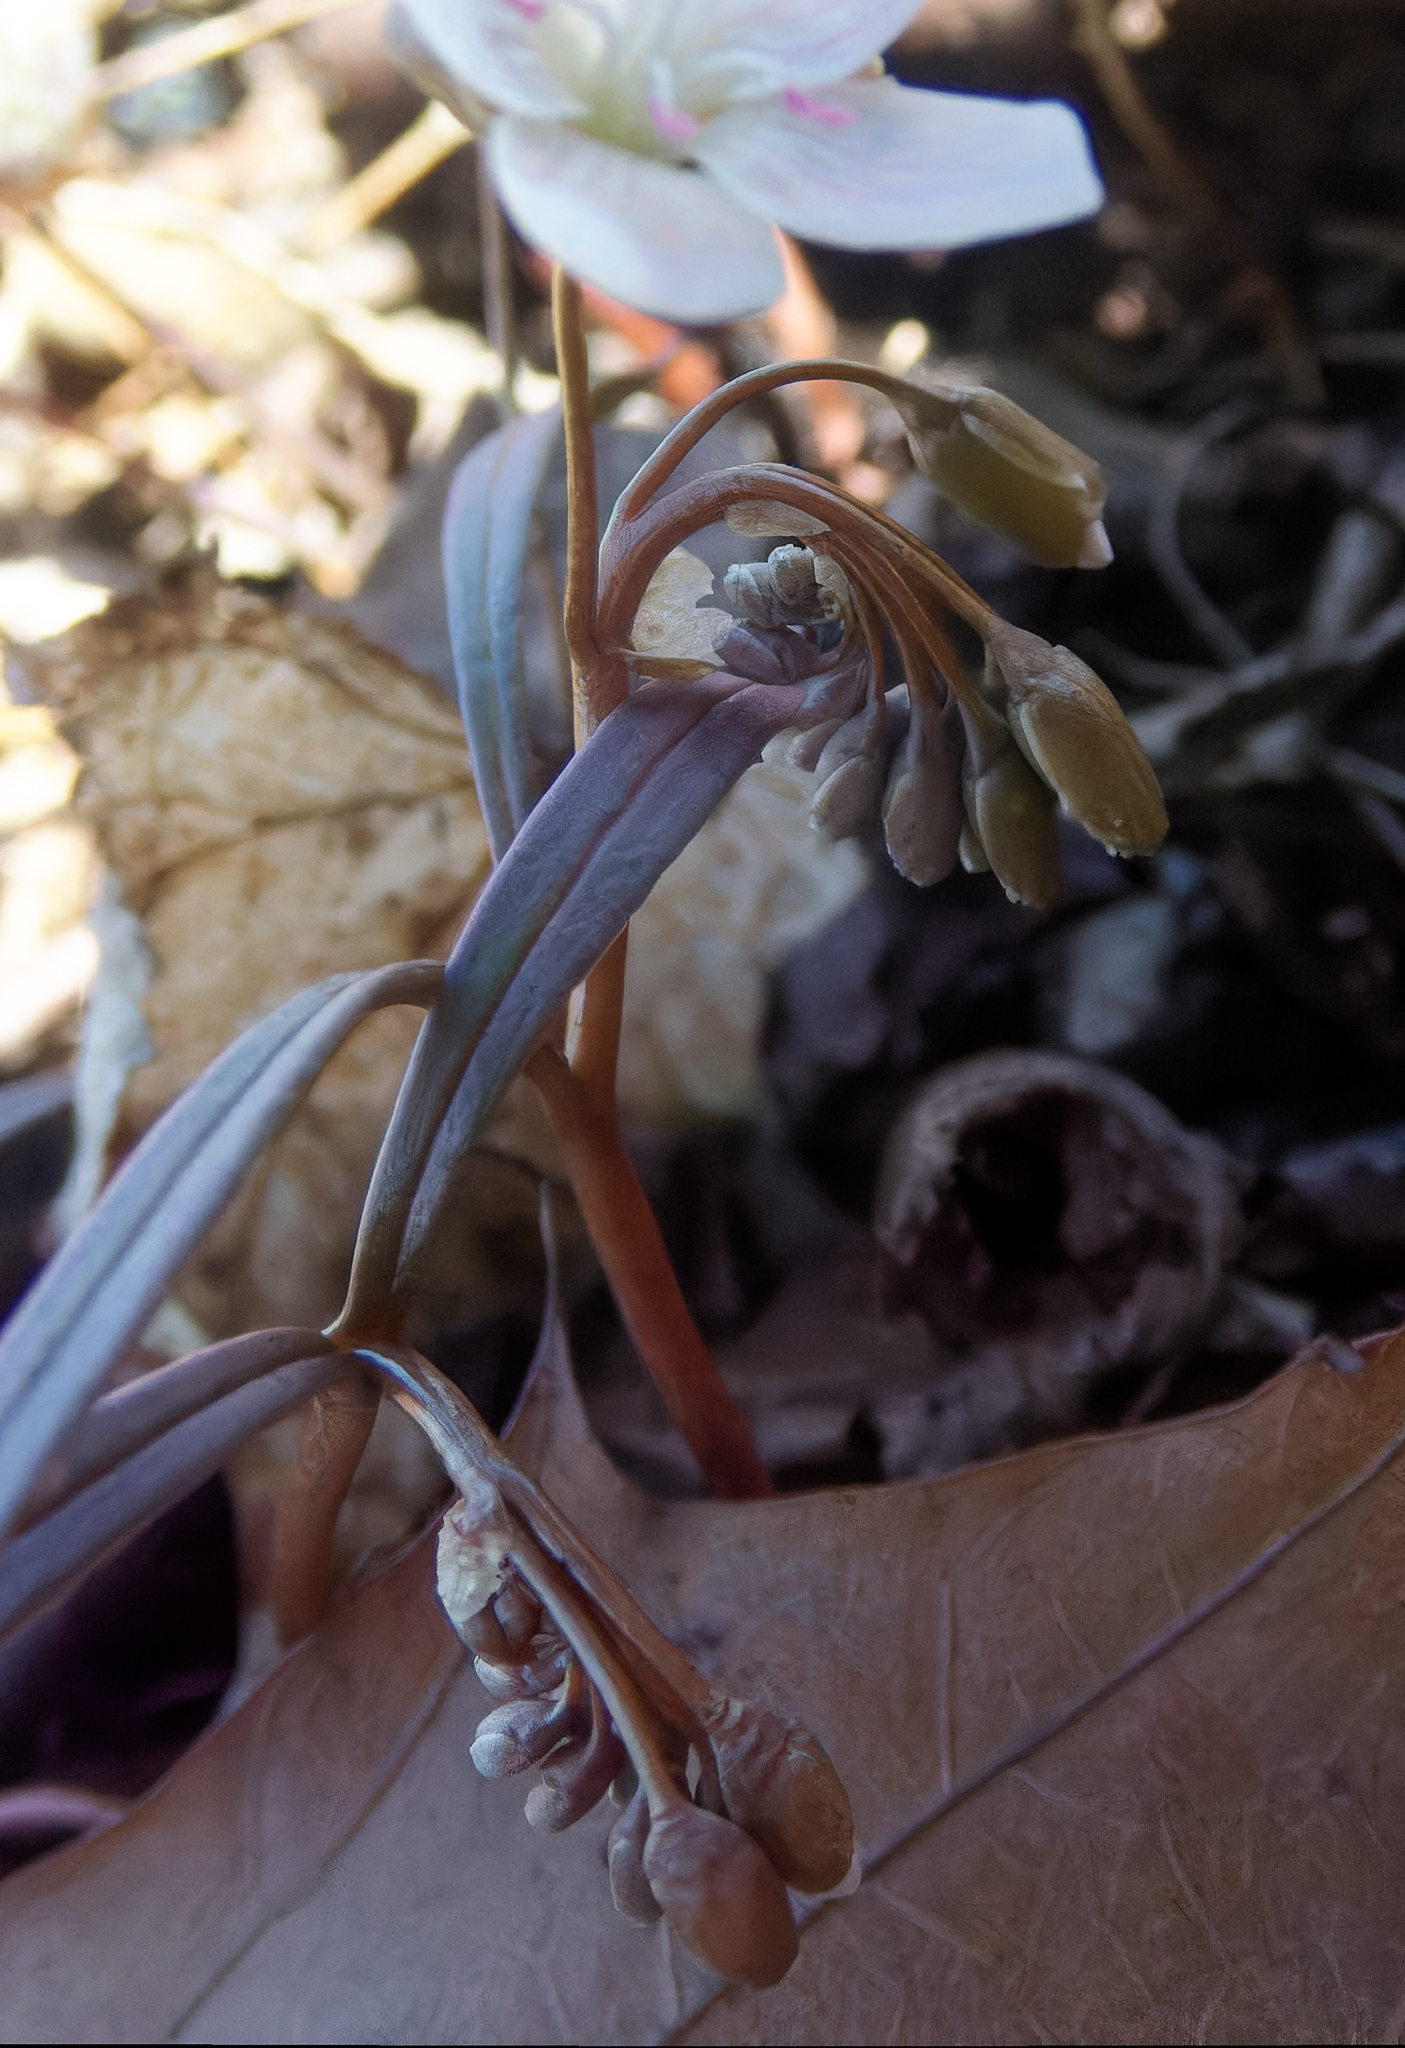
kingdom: Plantae
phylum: Tracheophyta
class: Magnoliopsida
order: Caryophyllales
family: Montiaceae
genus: Claytonia
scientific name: Claytonia virginica
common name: Virginia springbeauty
